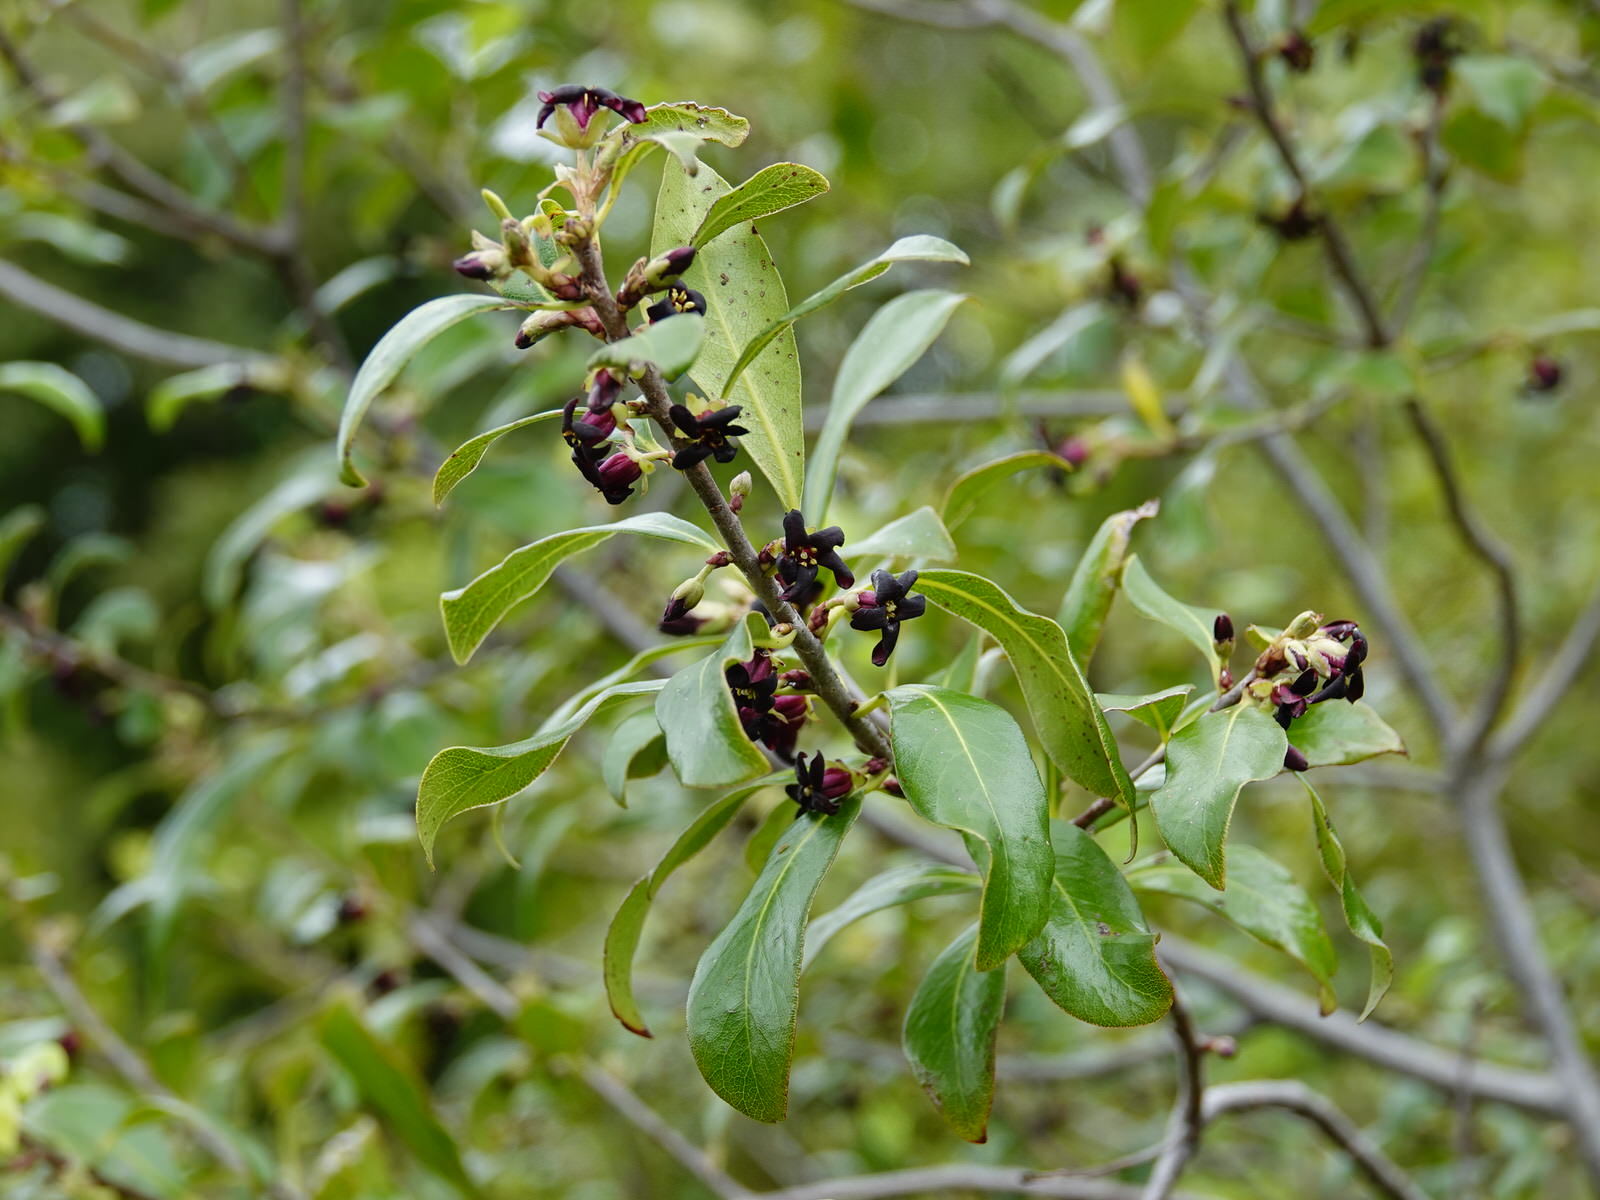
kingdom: Plantae
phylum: Tracheophyta
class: Magnoliopsida
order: Apiales
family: Pittosporaceae
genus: Pittosporum
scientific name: Pittosporum tenuifolium
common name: Kohuhu
